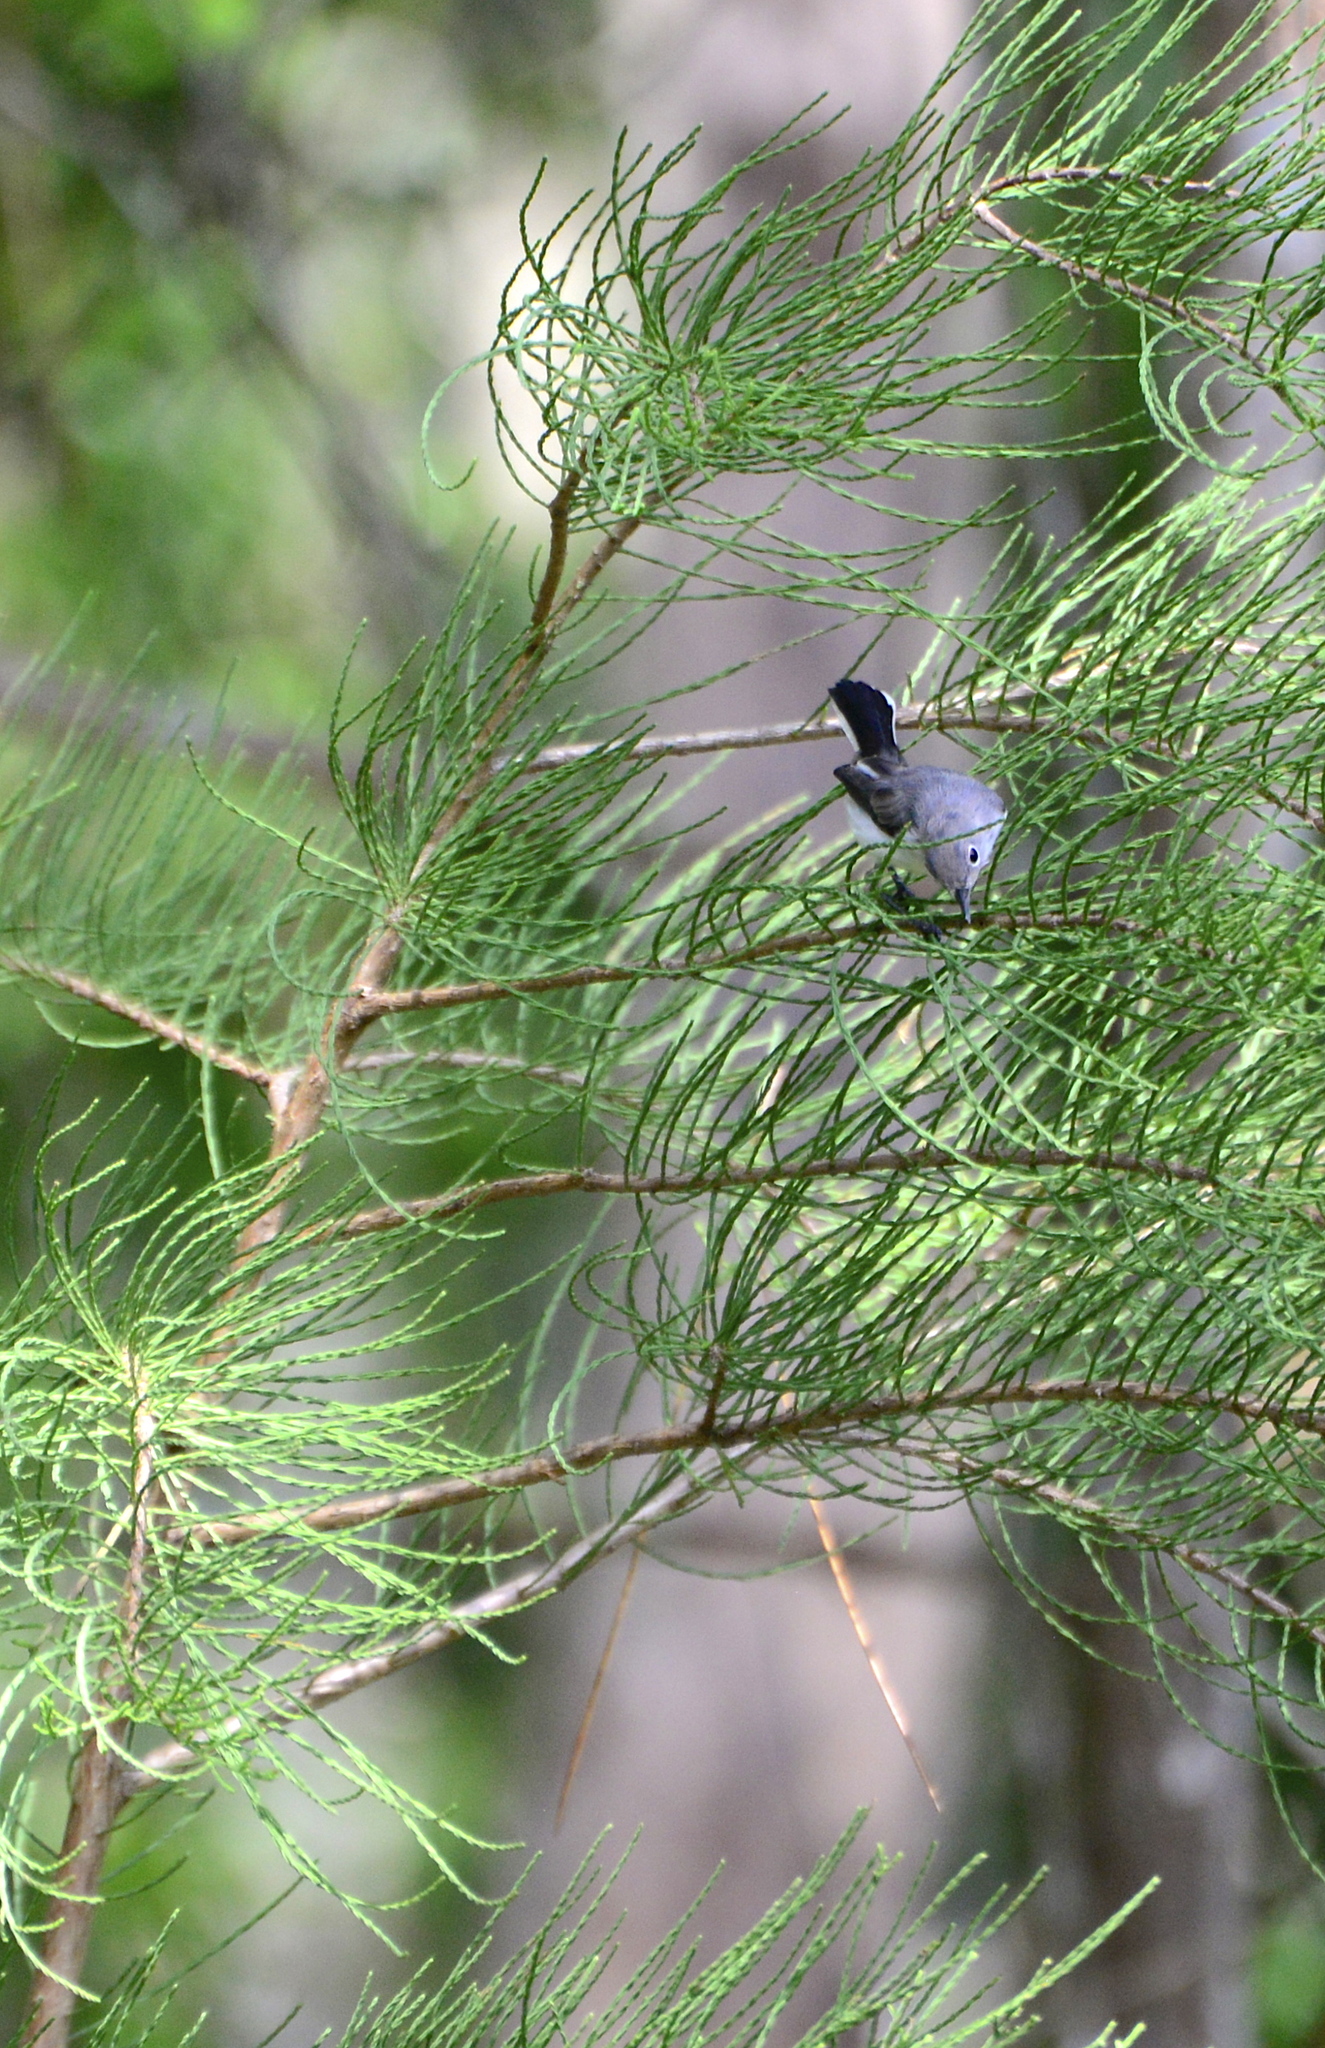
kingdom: Animalia
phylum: Chordata
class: Aves
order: Passeriformes
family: Polioptilidae
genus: Polioptila
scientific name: Polioptila caerulea
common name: Blue-gray gnatcatcher
